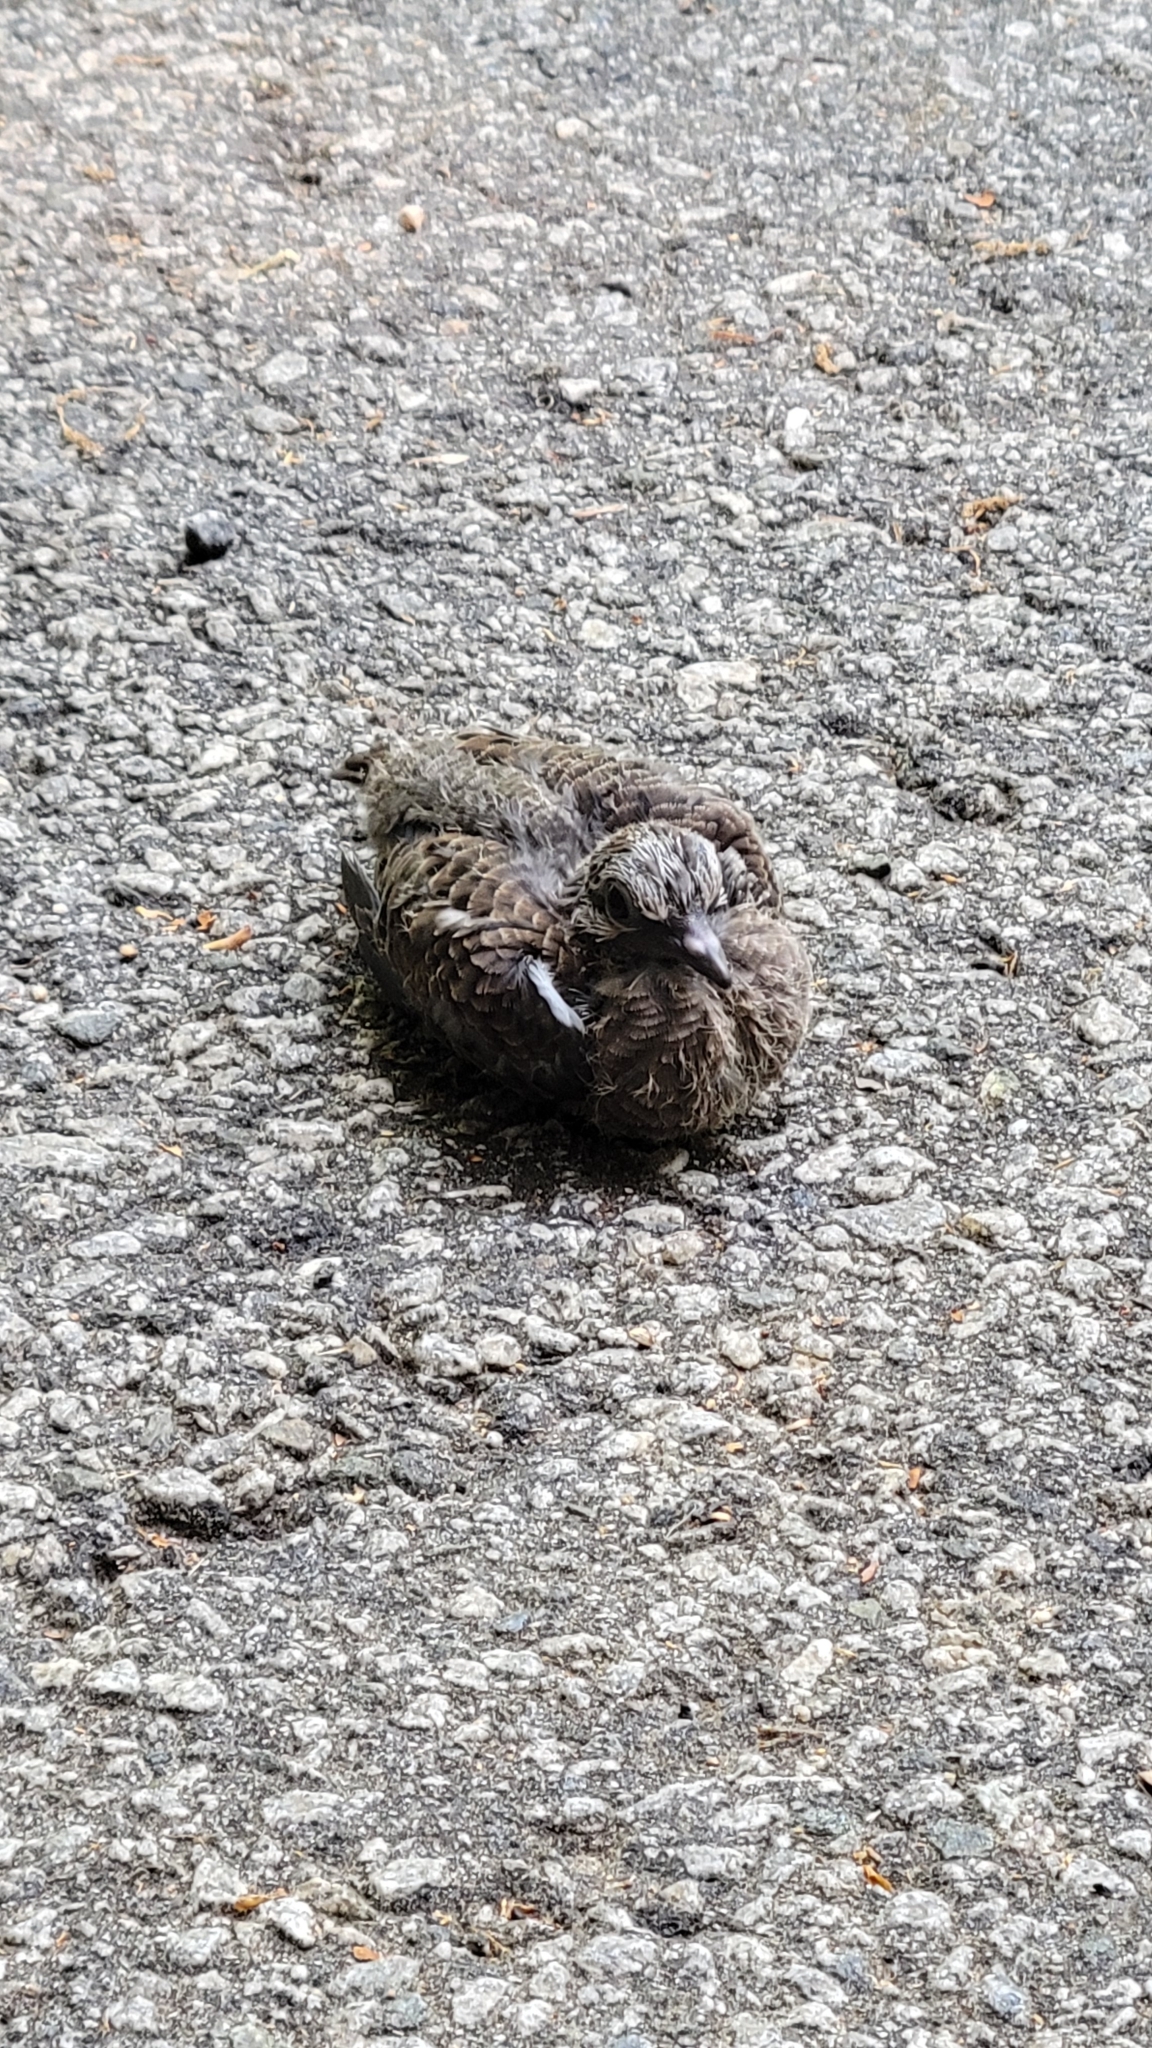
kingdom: Animalia
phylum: Chordata
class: Aves
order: Columbiformes
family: Columbidae
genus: Zenaida
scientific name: Zenaida macroura
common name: Mourning dove
